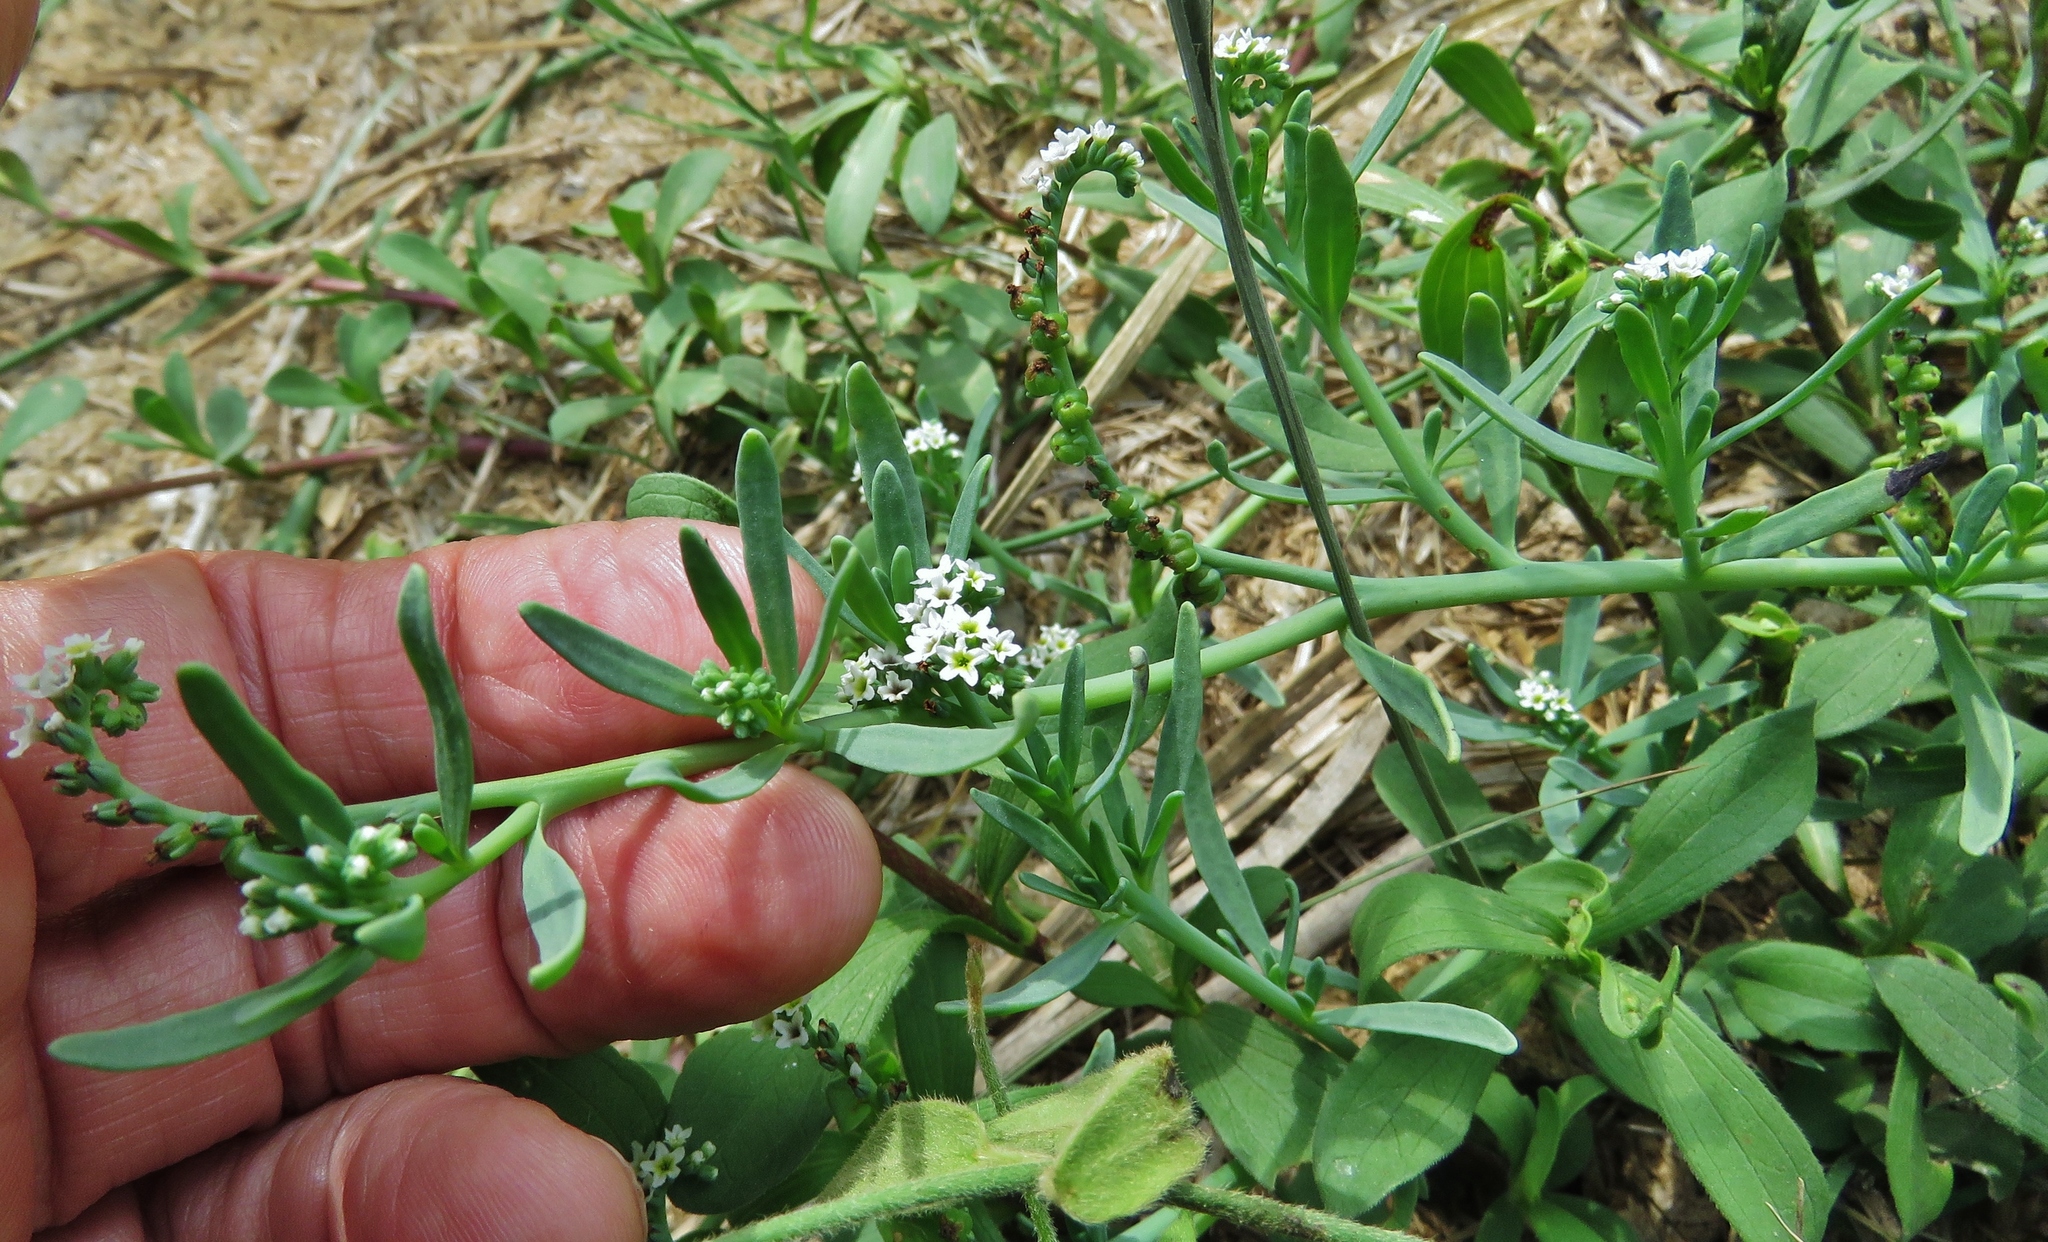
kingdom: Plantae
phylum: Tracheophyta
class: Magnoliopsida
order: Boraginales
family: Heliotropiaceae
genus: Heliotropium
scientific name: Heliotropium curassavicum
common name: Seaside heliotrope
